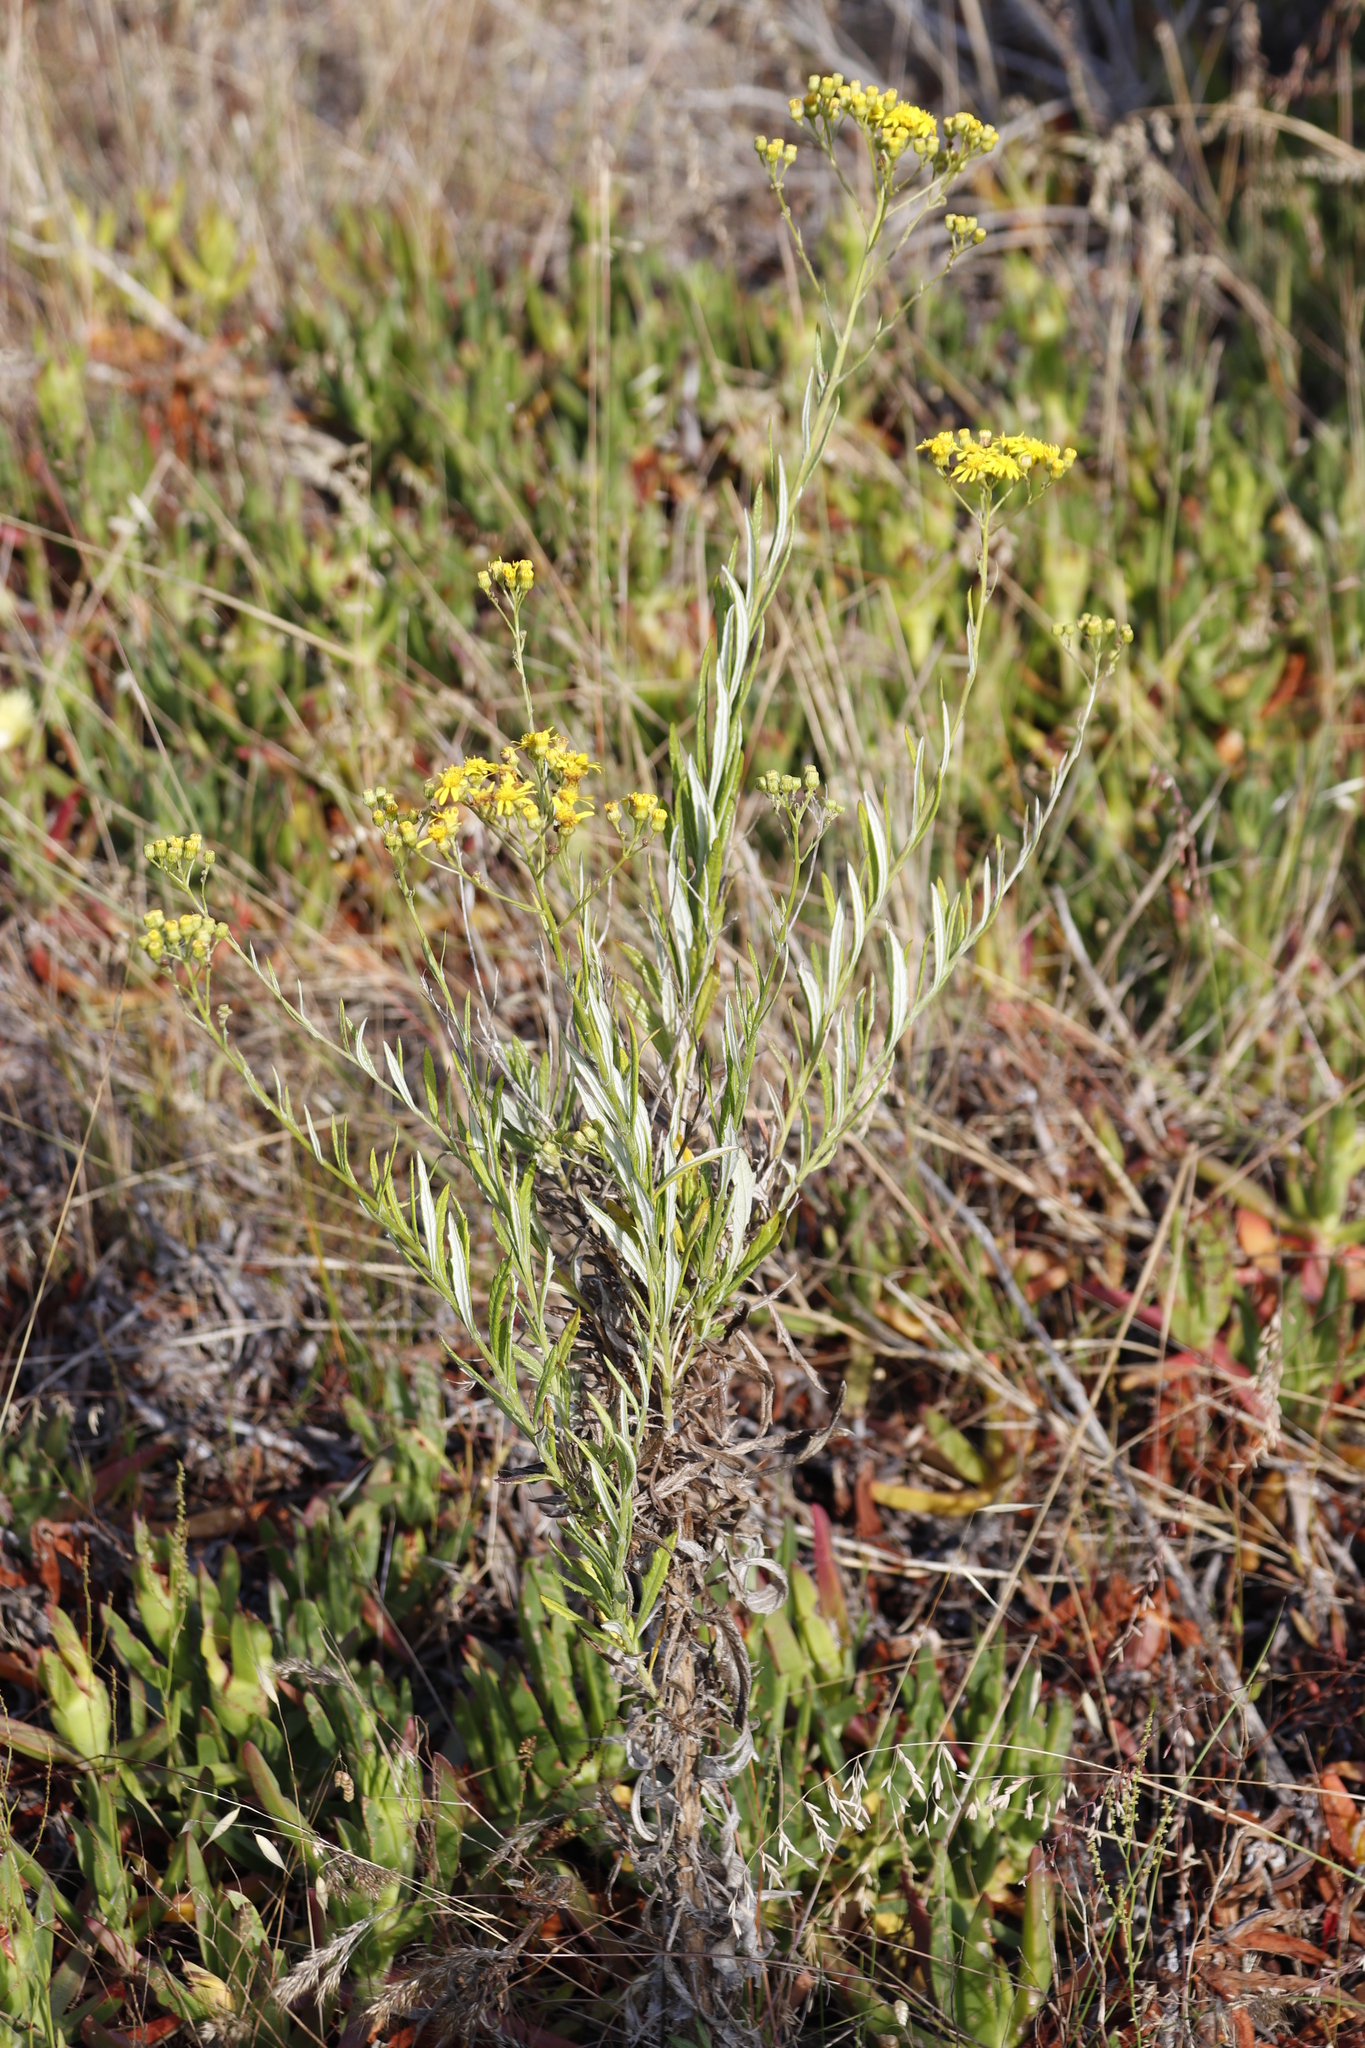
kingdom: Plantae
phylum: Tracheophyta
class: Magnoliopsida
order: Asterales
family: Asteraceae
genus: Senecio
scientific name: Senecio pterophorus
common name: Shoddy ragwort
